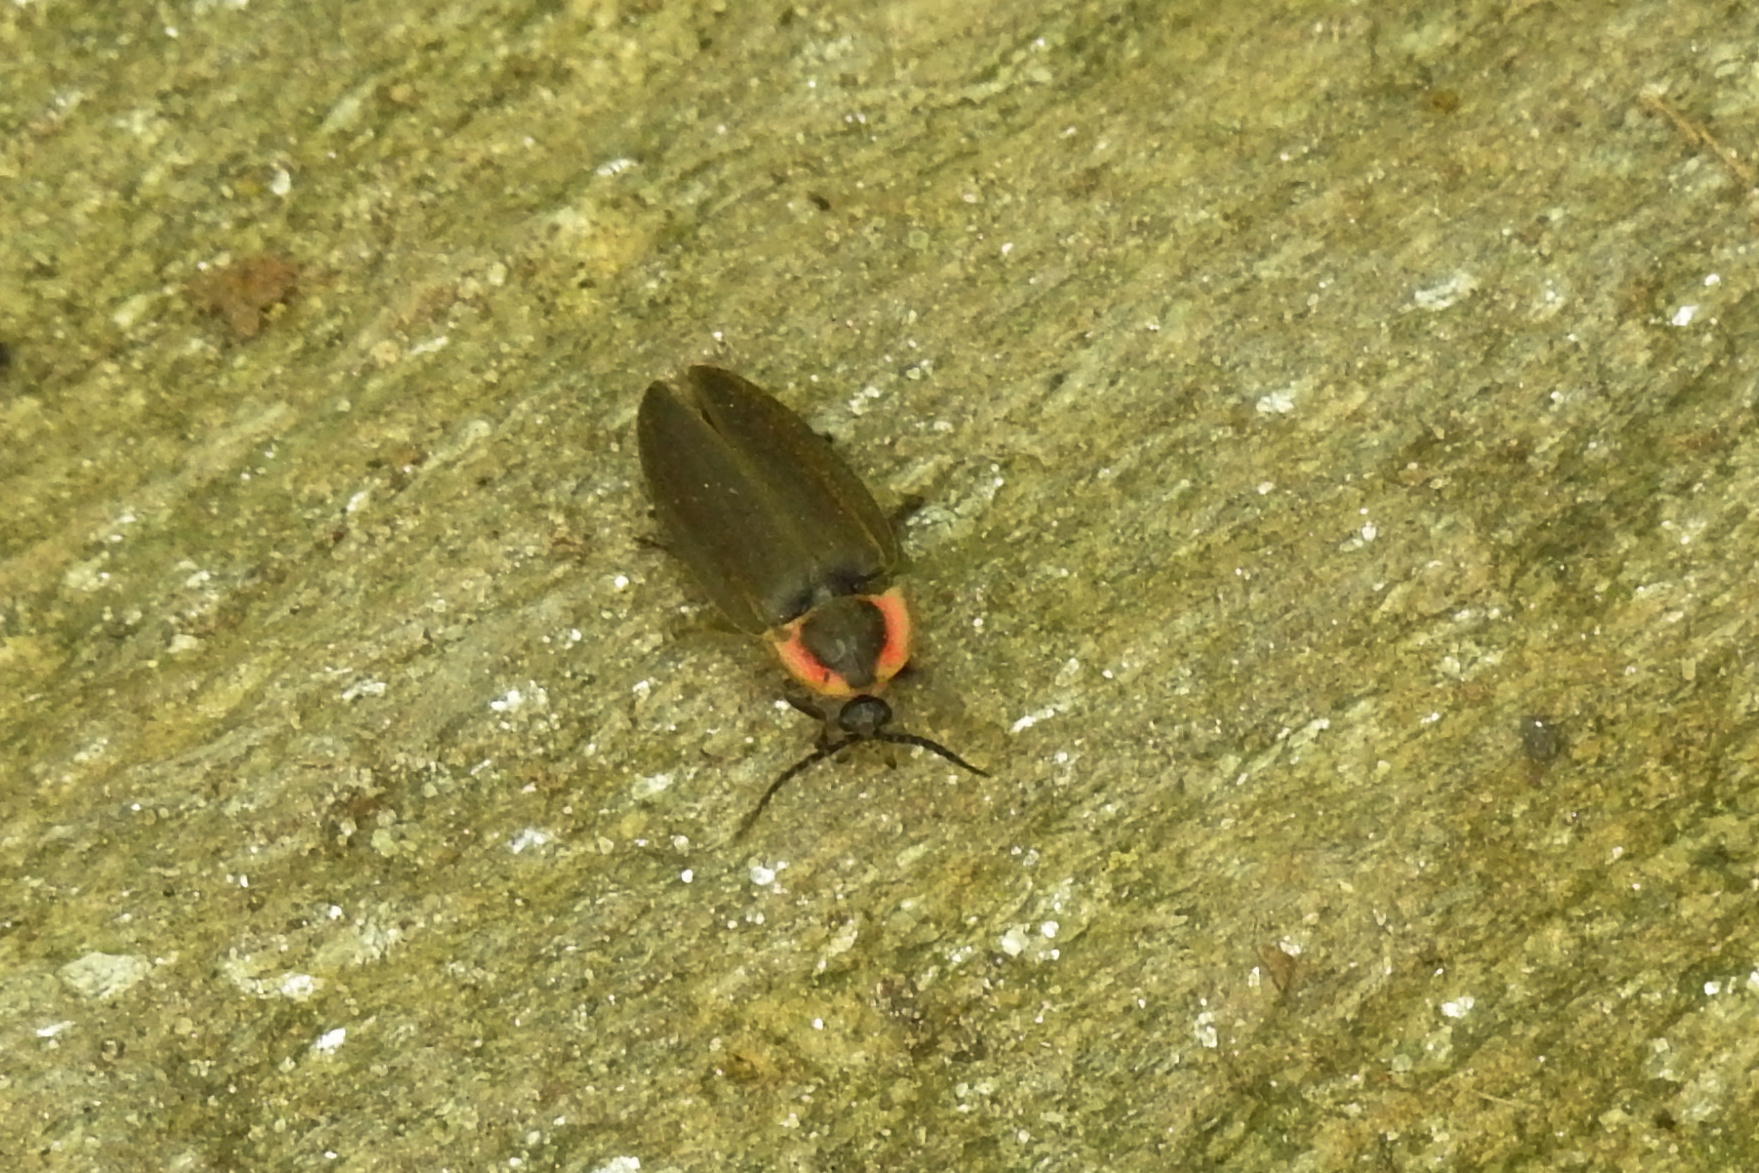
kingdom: Animalia
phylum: Arthropoda
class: Insecta
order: Coleoptera
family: Lampyridae
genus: Photinus
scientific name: Photinus corrusca
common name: Winter firefly
